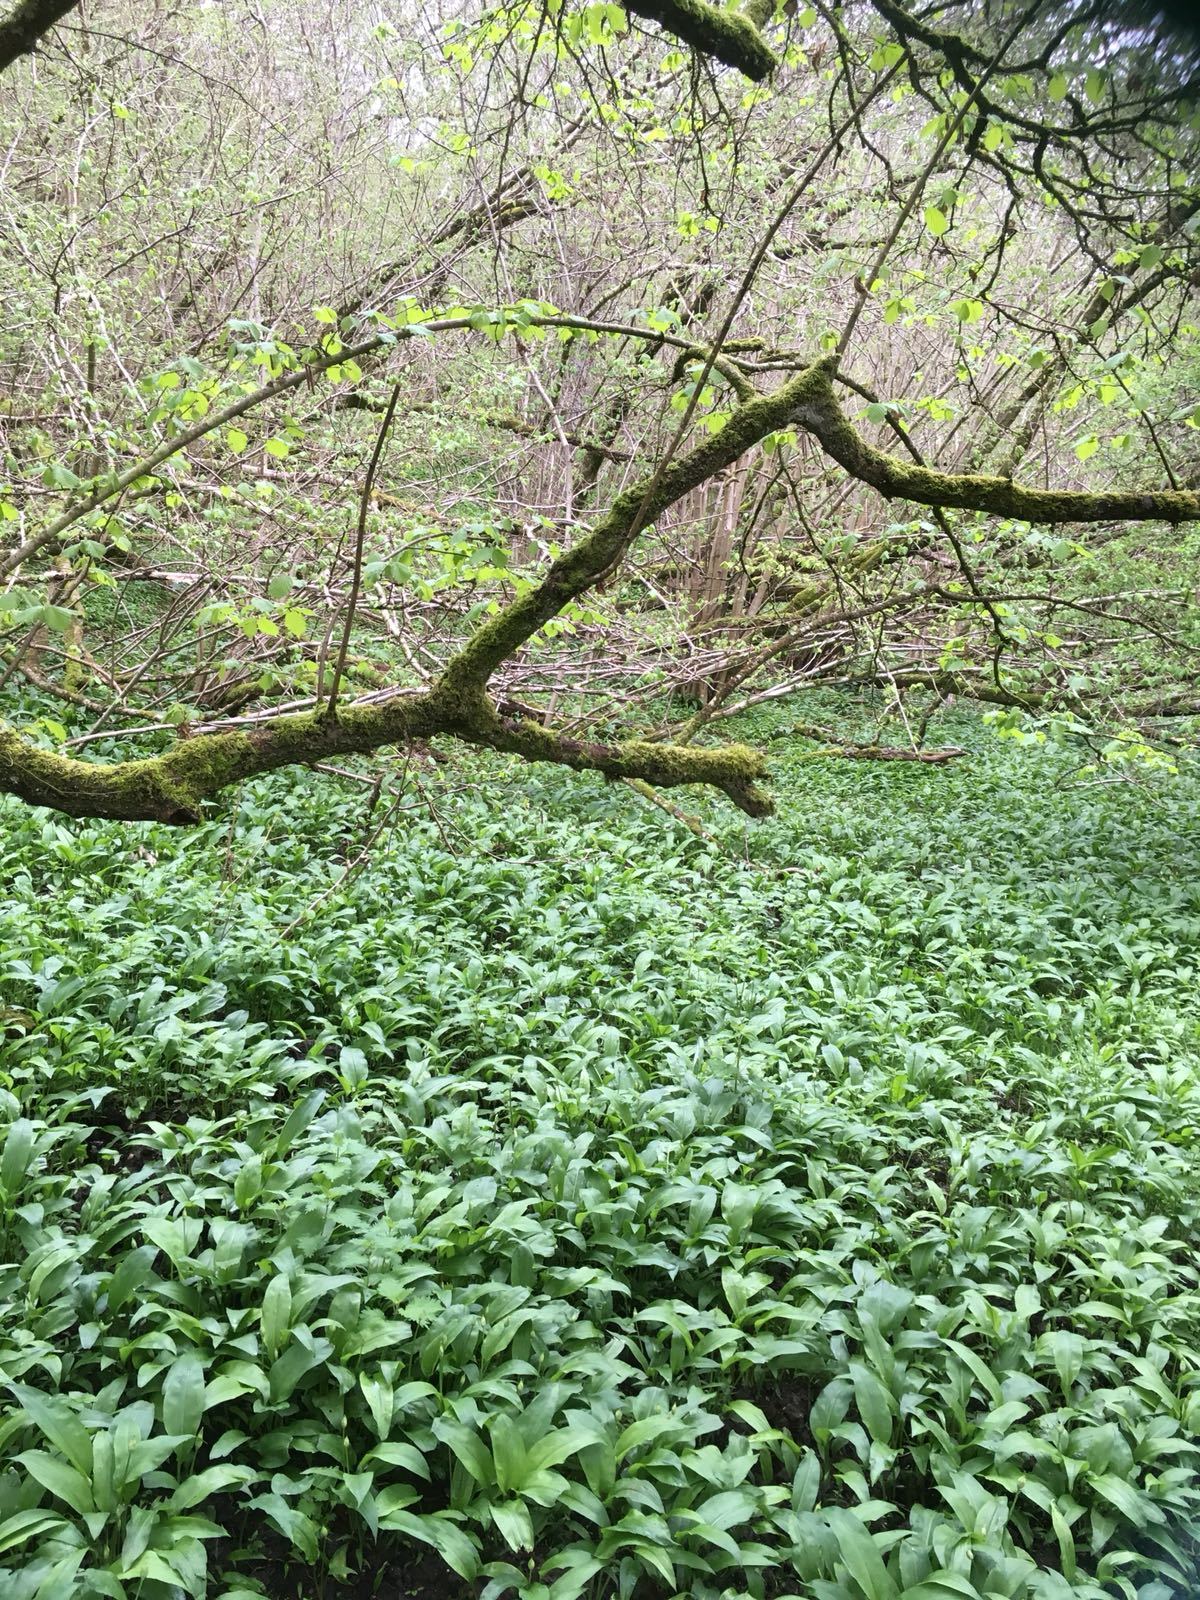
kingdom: Plantae
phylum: Tracheophyta
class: Liliopsida
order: Asparagales
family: Amaryllidaceae
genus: Allium
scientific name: Allium ursinum
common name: Ramsons
